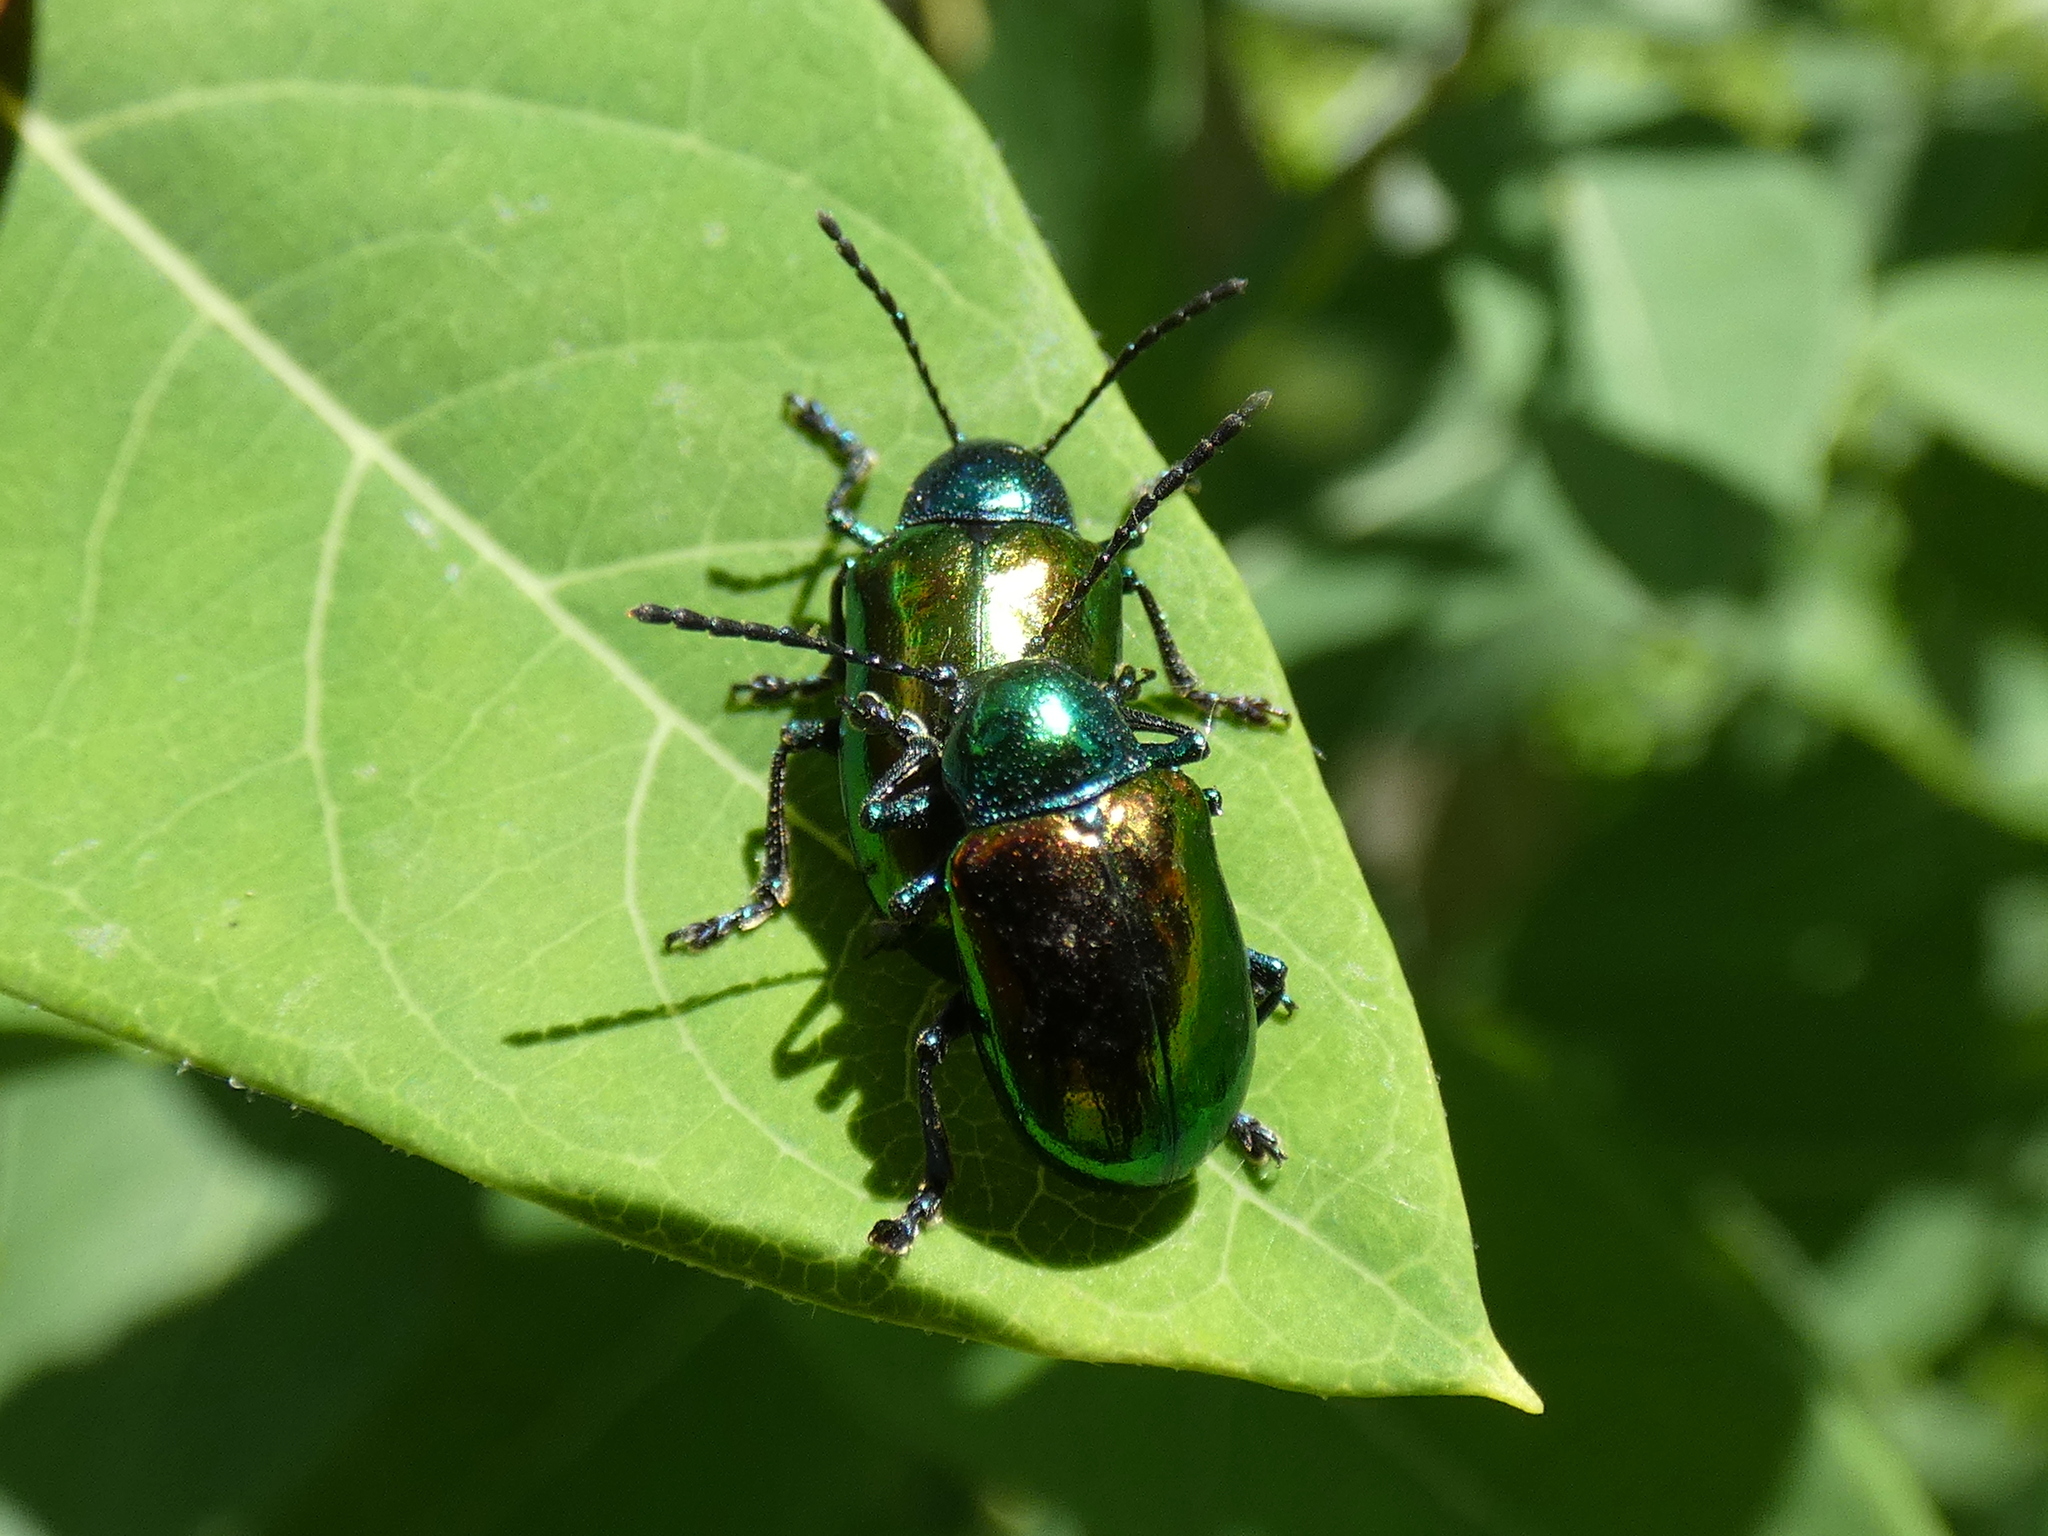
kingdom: Animalia
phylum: Arthropoda
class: Insecta
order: Coleoptera
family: Chrysomelidae
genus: Chrysochus
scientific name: Chrysochus auratus
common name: Dogbane leaf beetle
